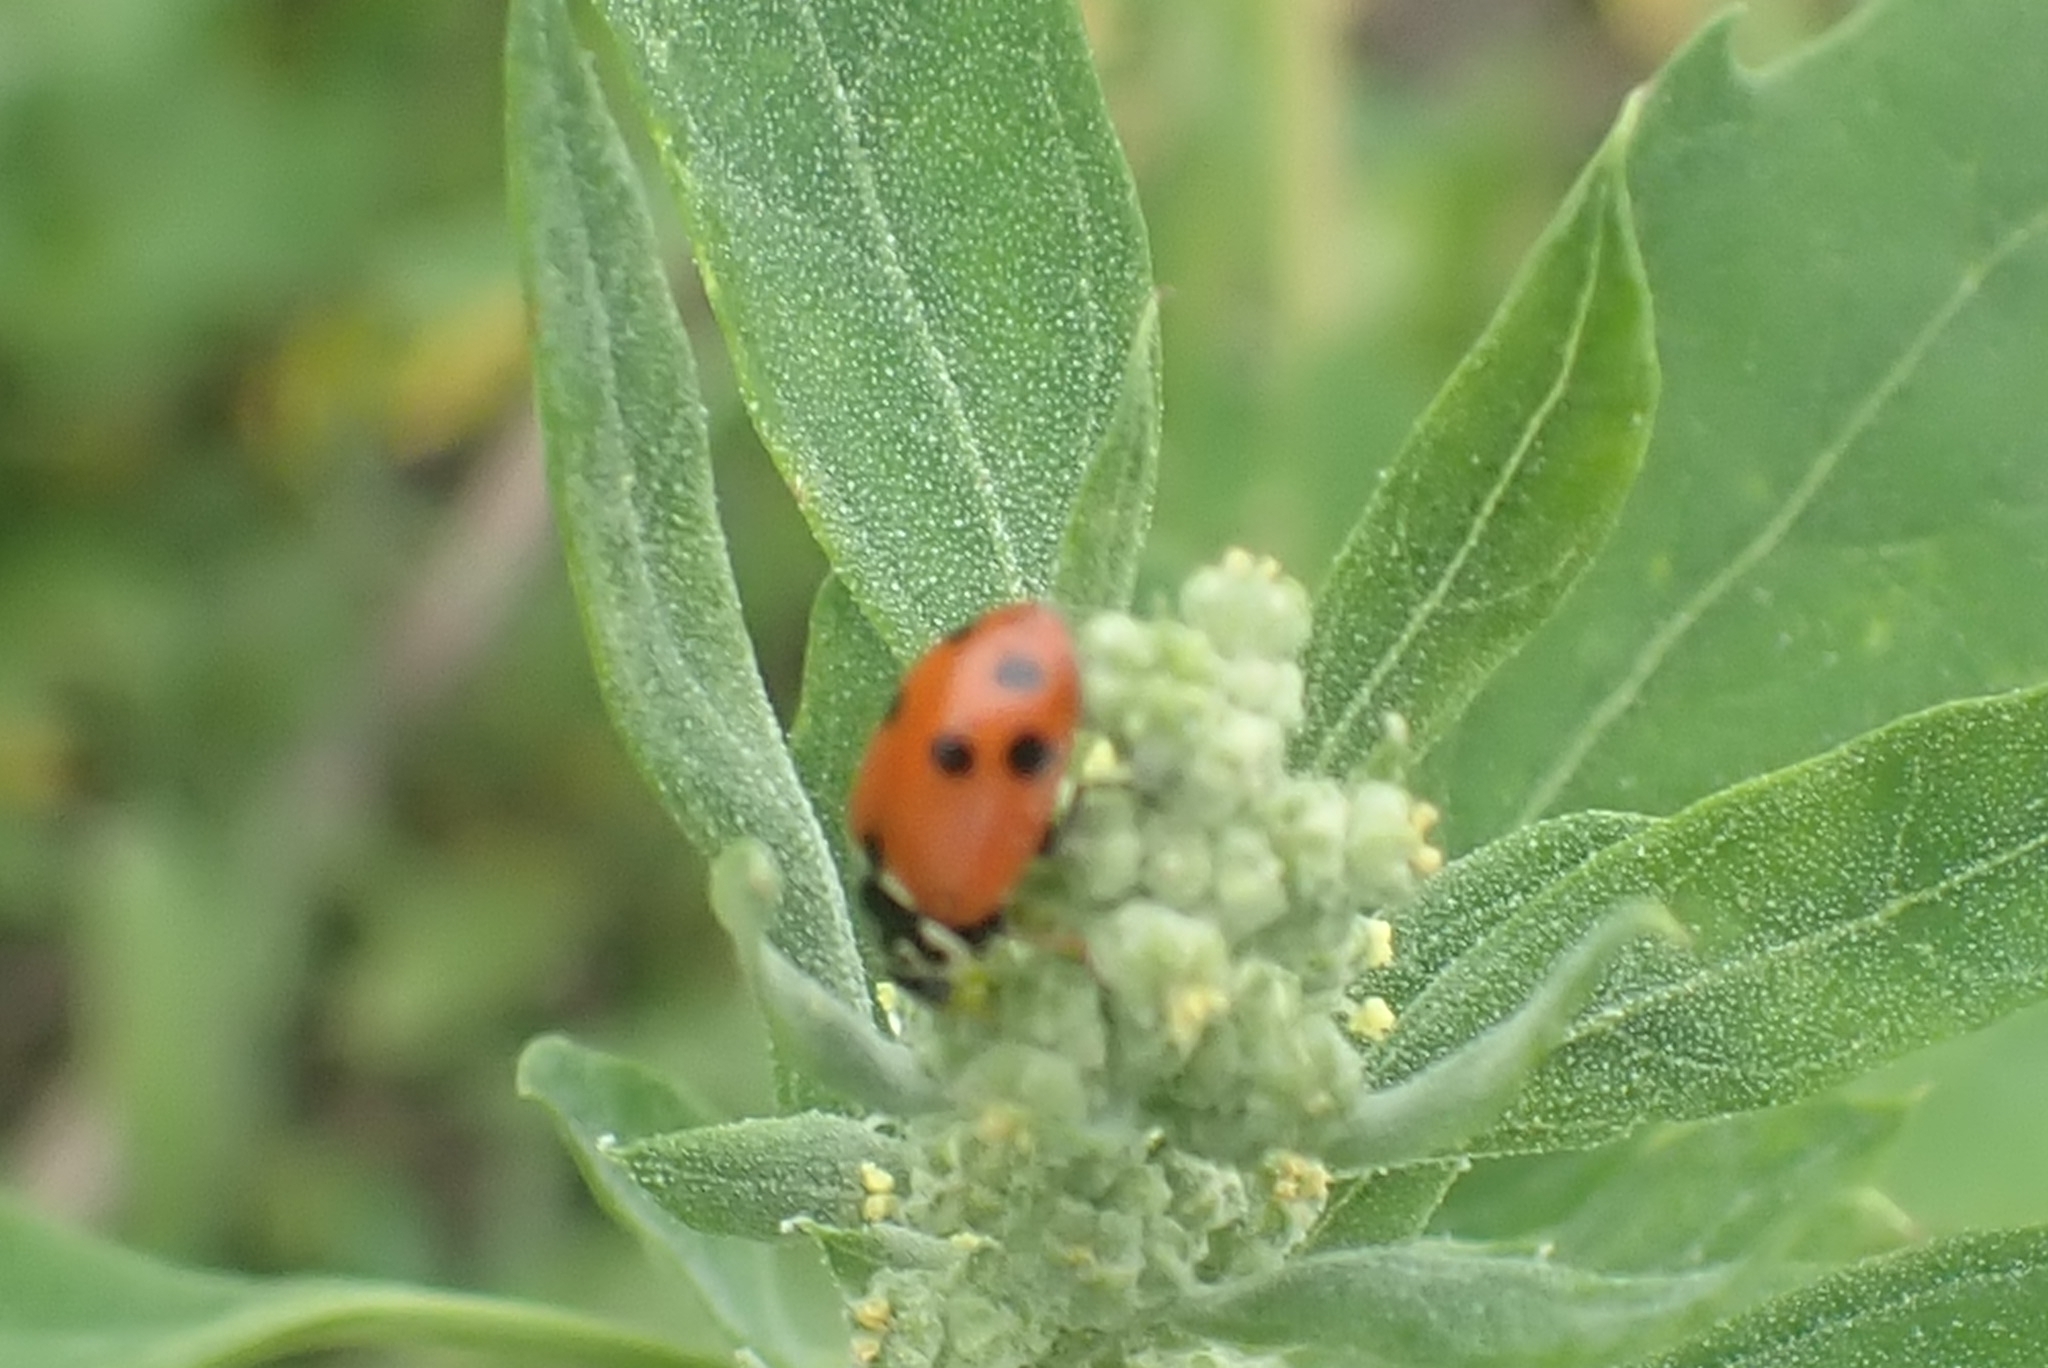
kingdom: Animalia
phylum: Arthropoda
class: Insecta
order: Coleoptera
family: Coccinellidae
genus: Hippodamia
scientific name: Hippodamia variegata
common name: Ladybird beetle
